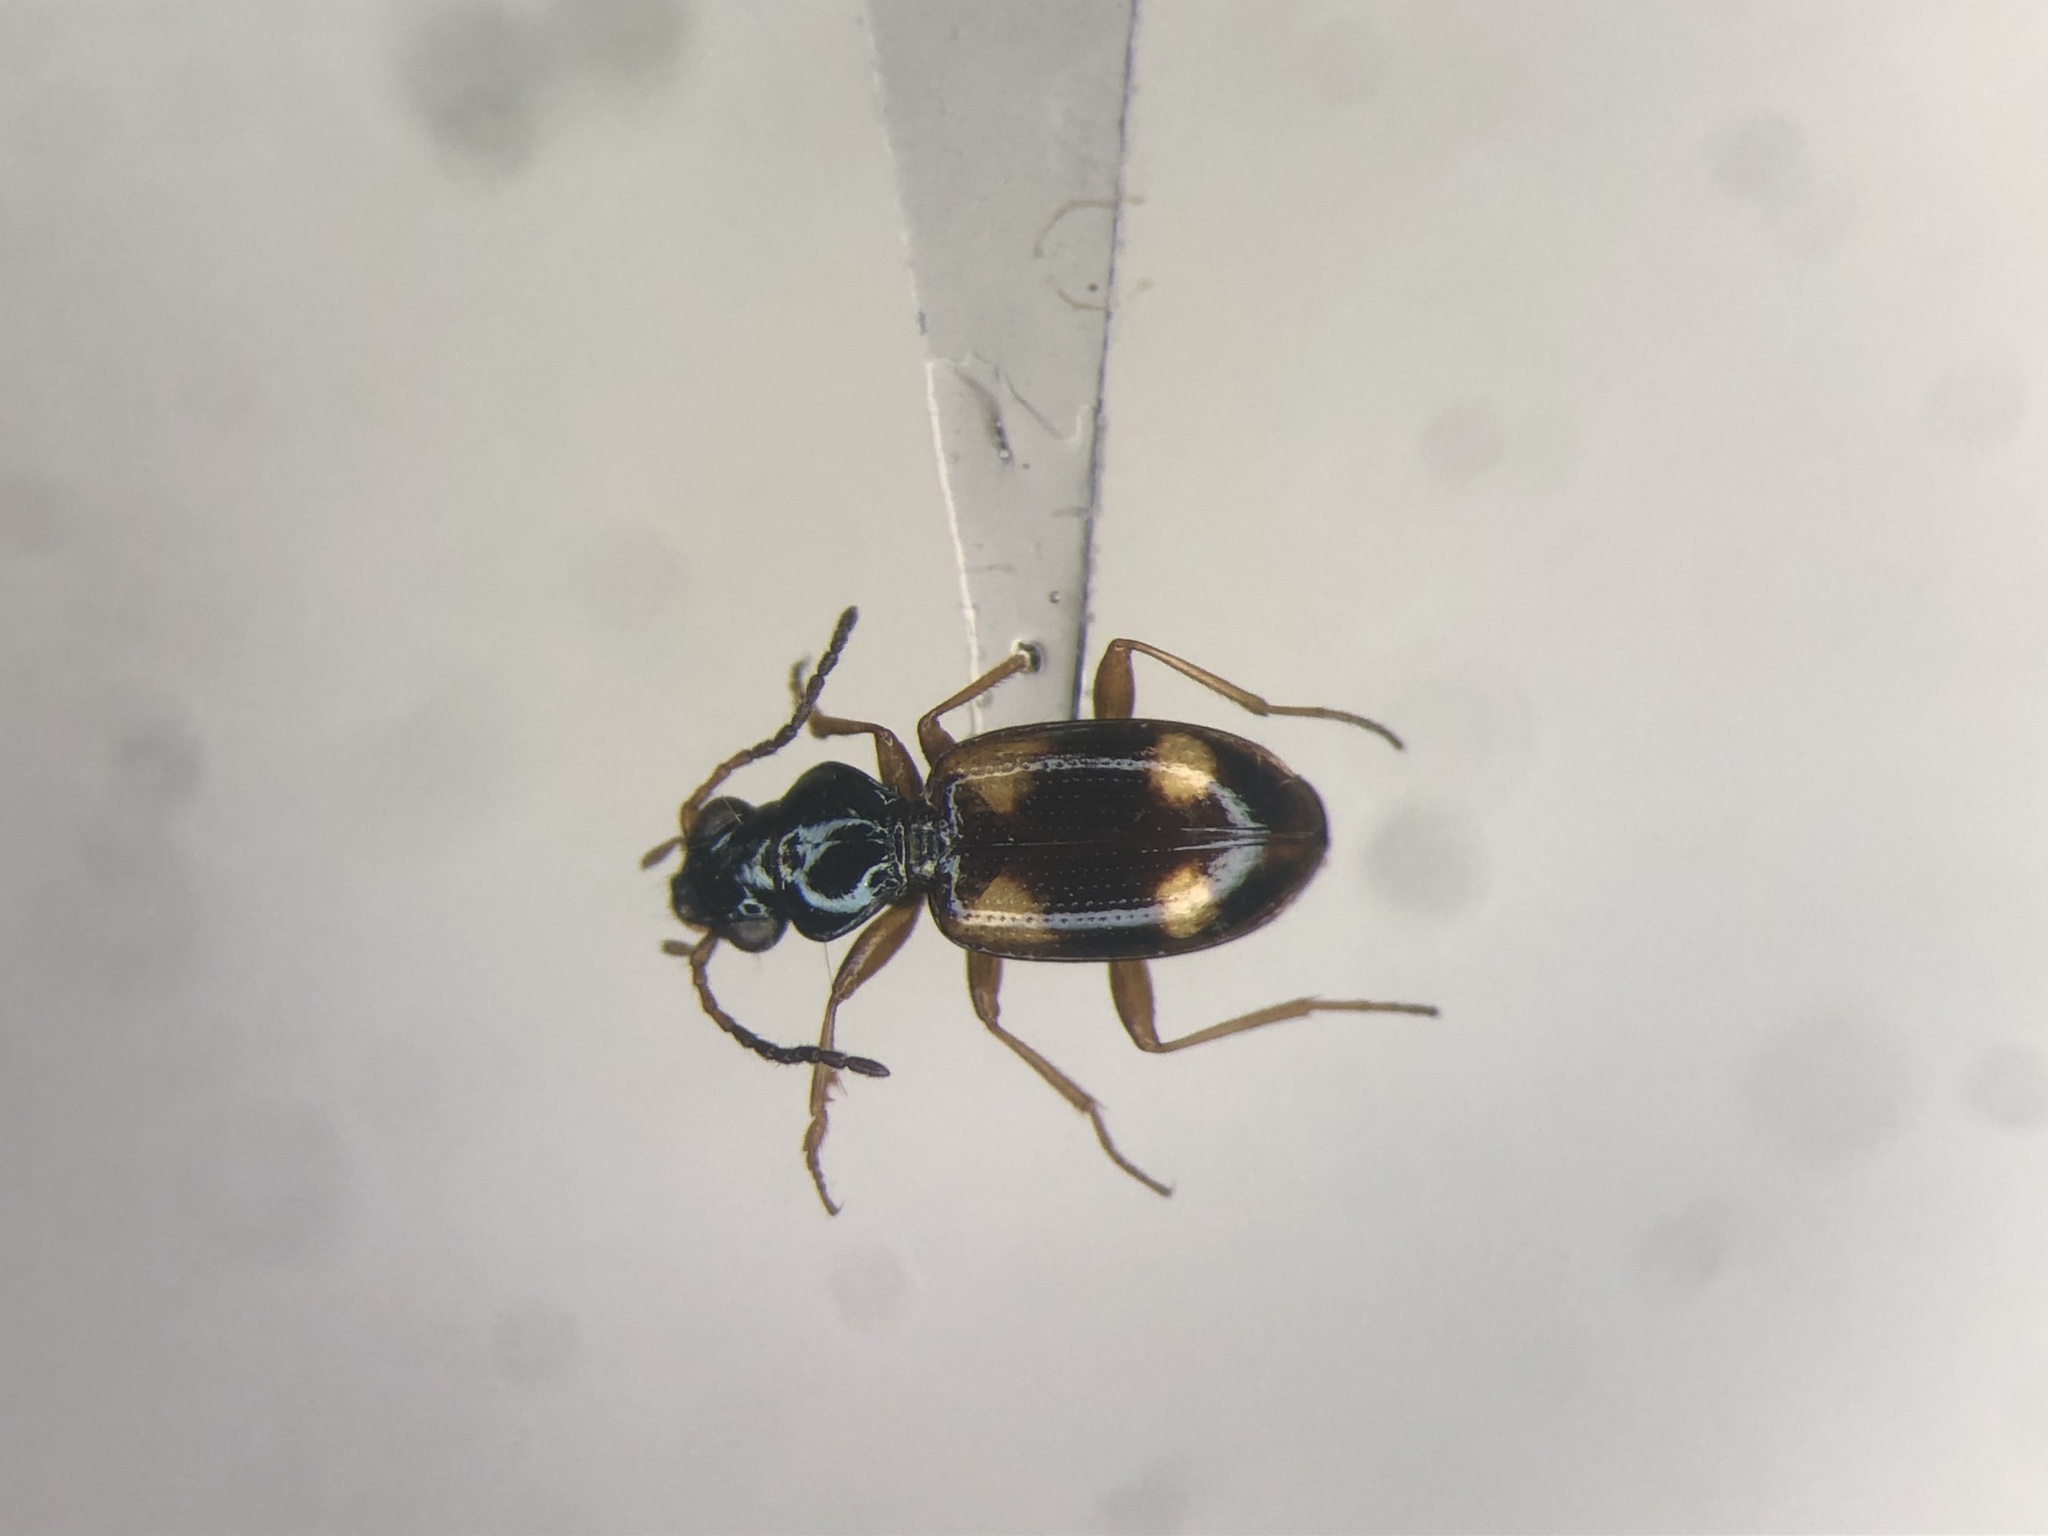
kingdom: Animalia
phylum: Arthropoda
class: Insecta
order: Coleoptera
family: Carabidae
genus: Bembidion
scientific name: Bembidion quadrimaculatum
